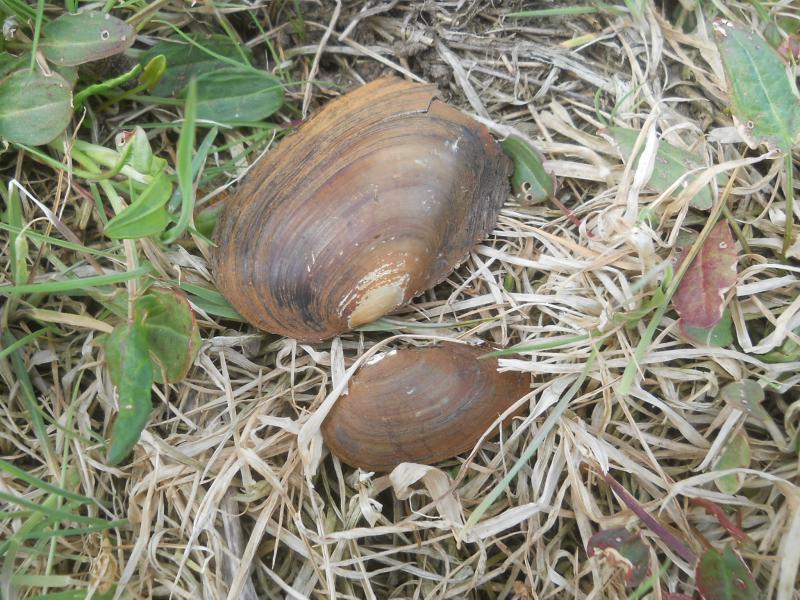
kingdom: Animalia
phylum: Mollusca
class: Bivalvia
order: Unionida
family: Unionidae
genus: Anodonta
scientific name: Anodonta anatina
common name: Duck mussel
